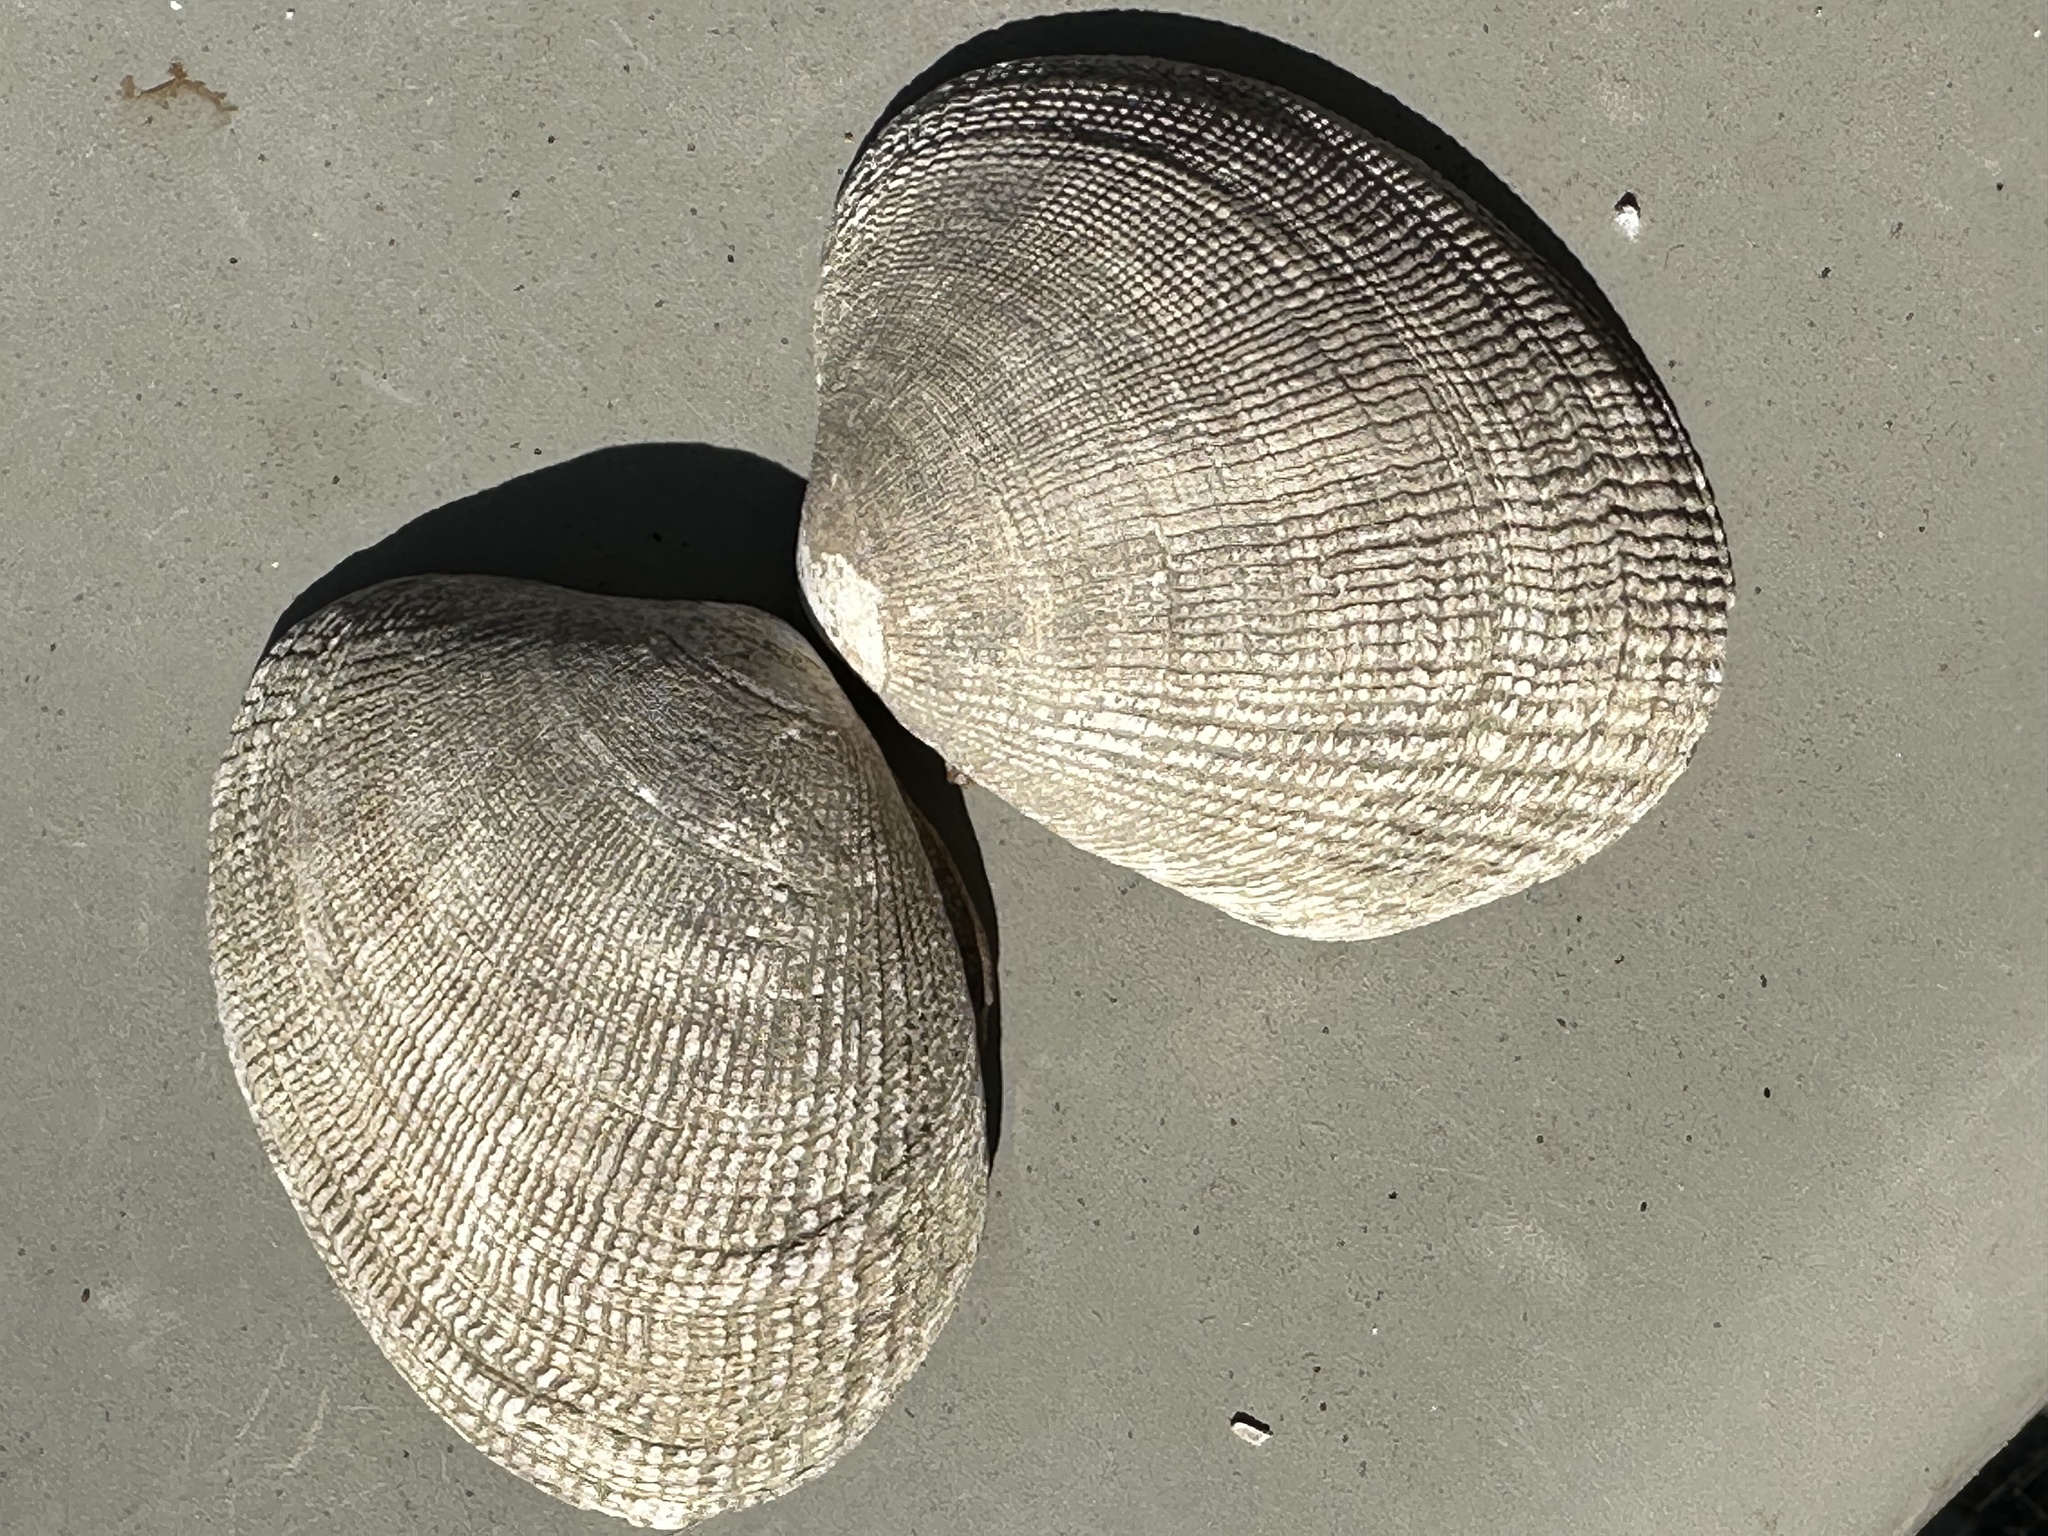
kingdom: Animalia
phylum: Mollusca
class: Bivalvia
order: Venerida
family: Veneridae
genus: Ruditapes
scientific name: Ruditapes philippinarum
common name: Manila clam
